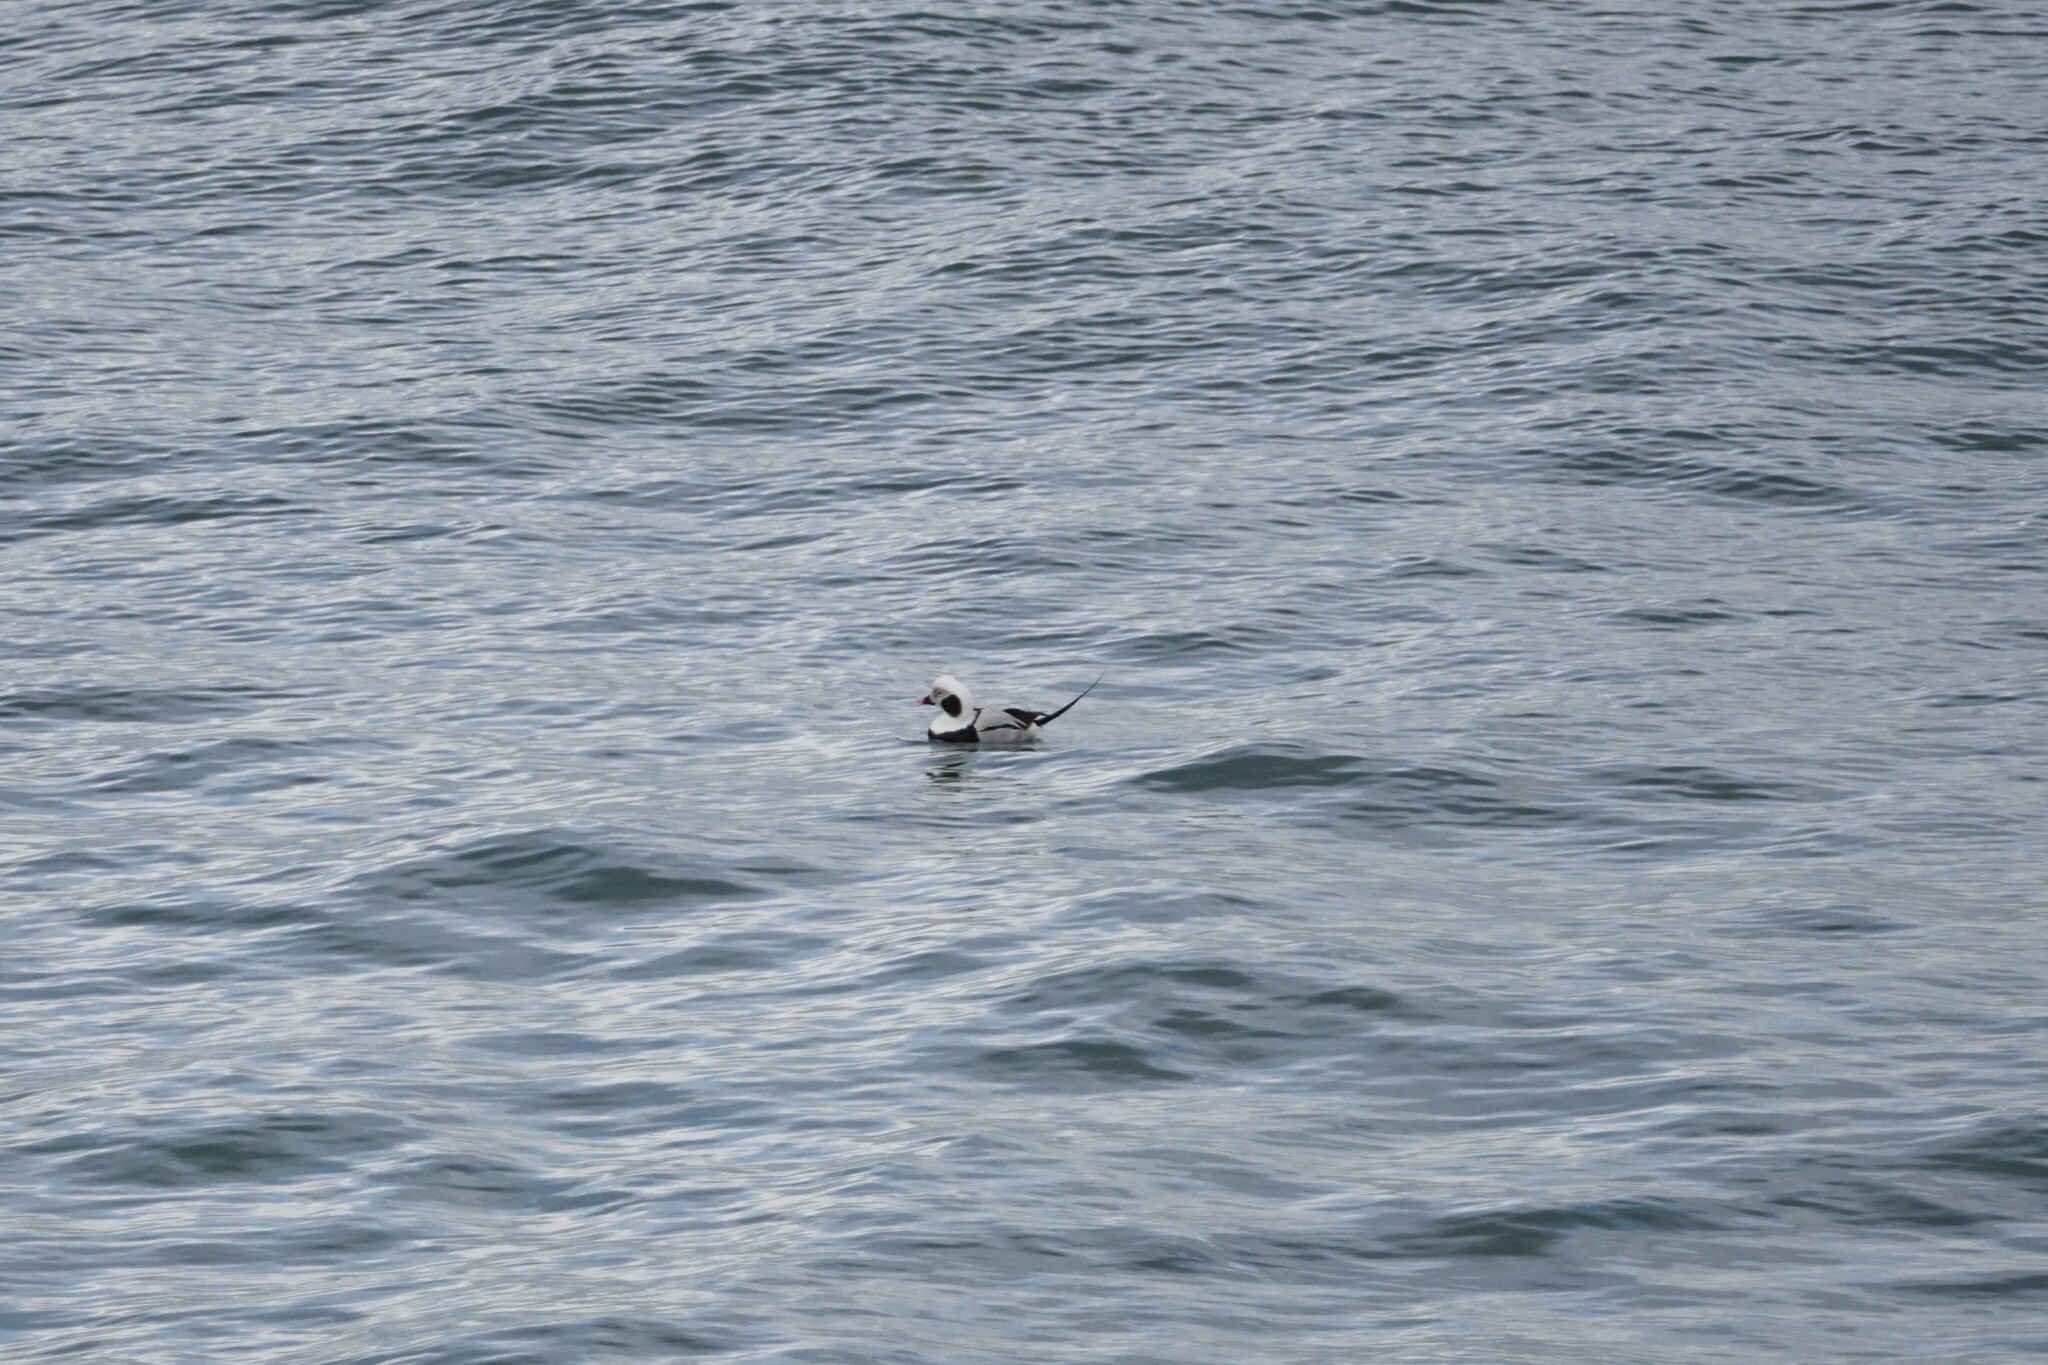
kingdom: Animalia
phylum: Chordata
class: Aves
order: Anseriformes
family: Anatidae
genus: Clangula
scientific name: Clangula hyemalis
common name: Long-tailed duck
